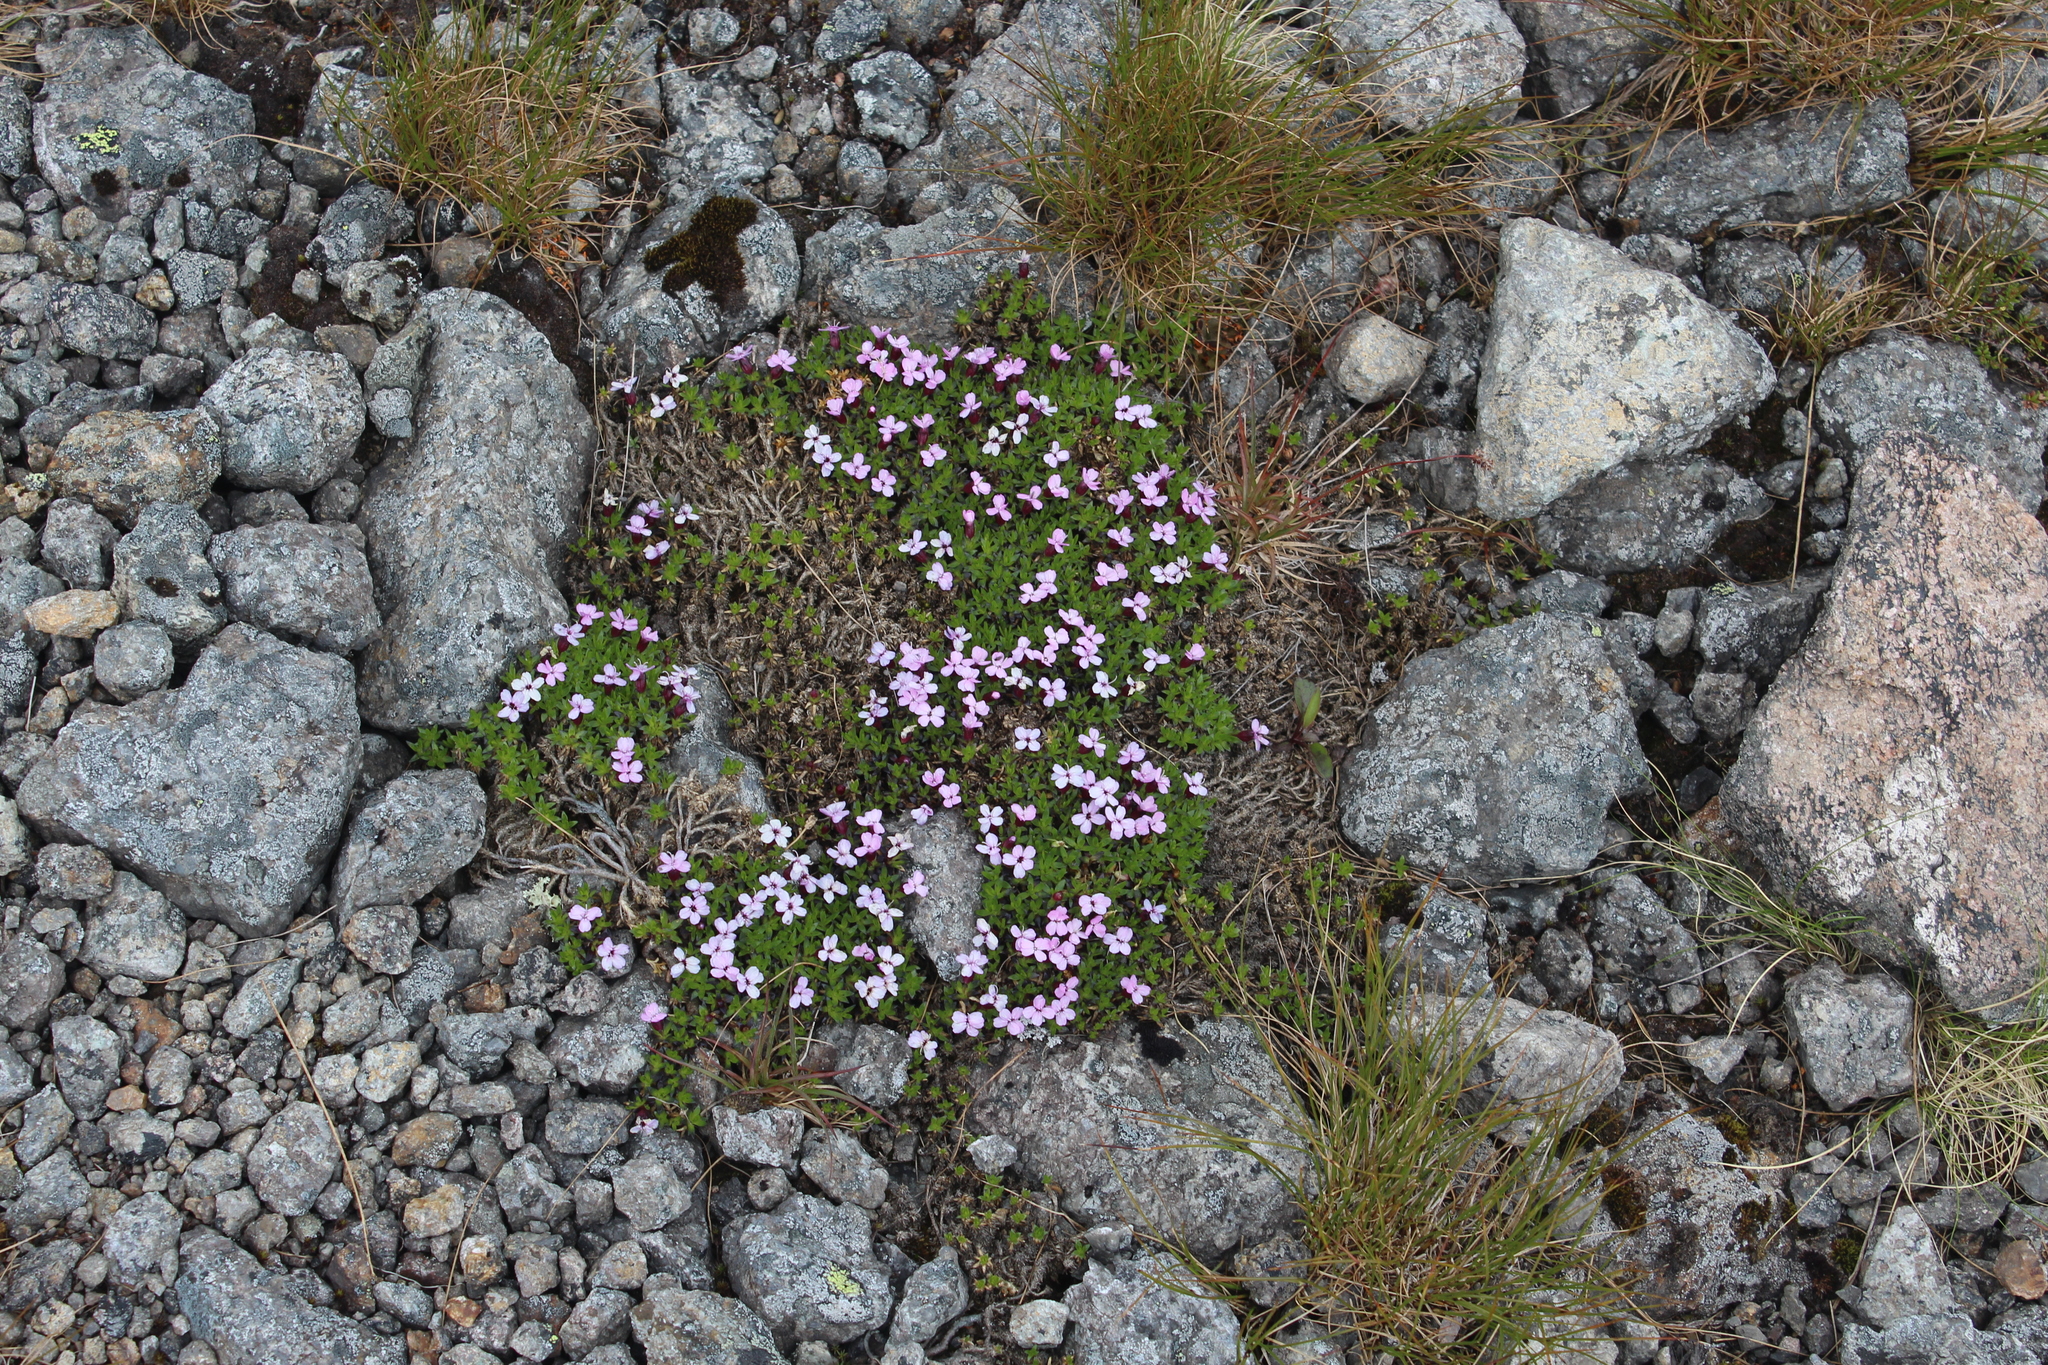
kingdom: Plantae
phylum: Tracheophyta
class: Magnoliopsida
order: Caryophyllales
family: Caryophyllaceae
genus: Silene
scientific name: Silene acaulis
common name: Moss campion
